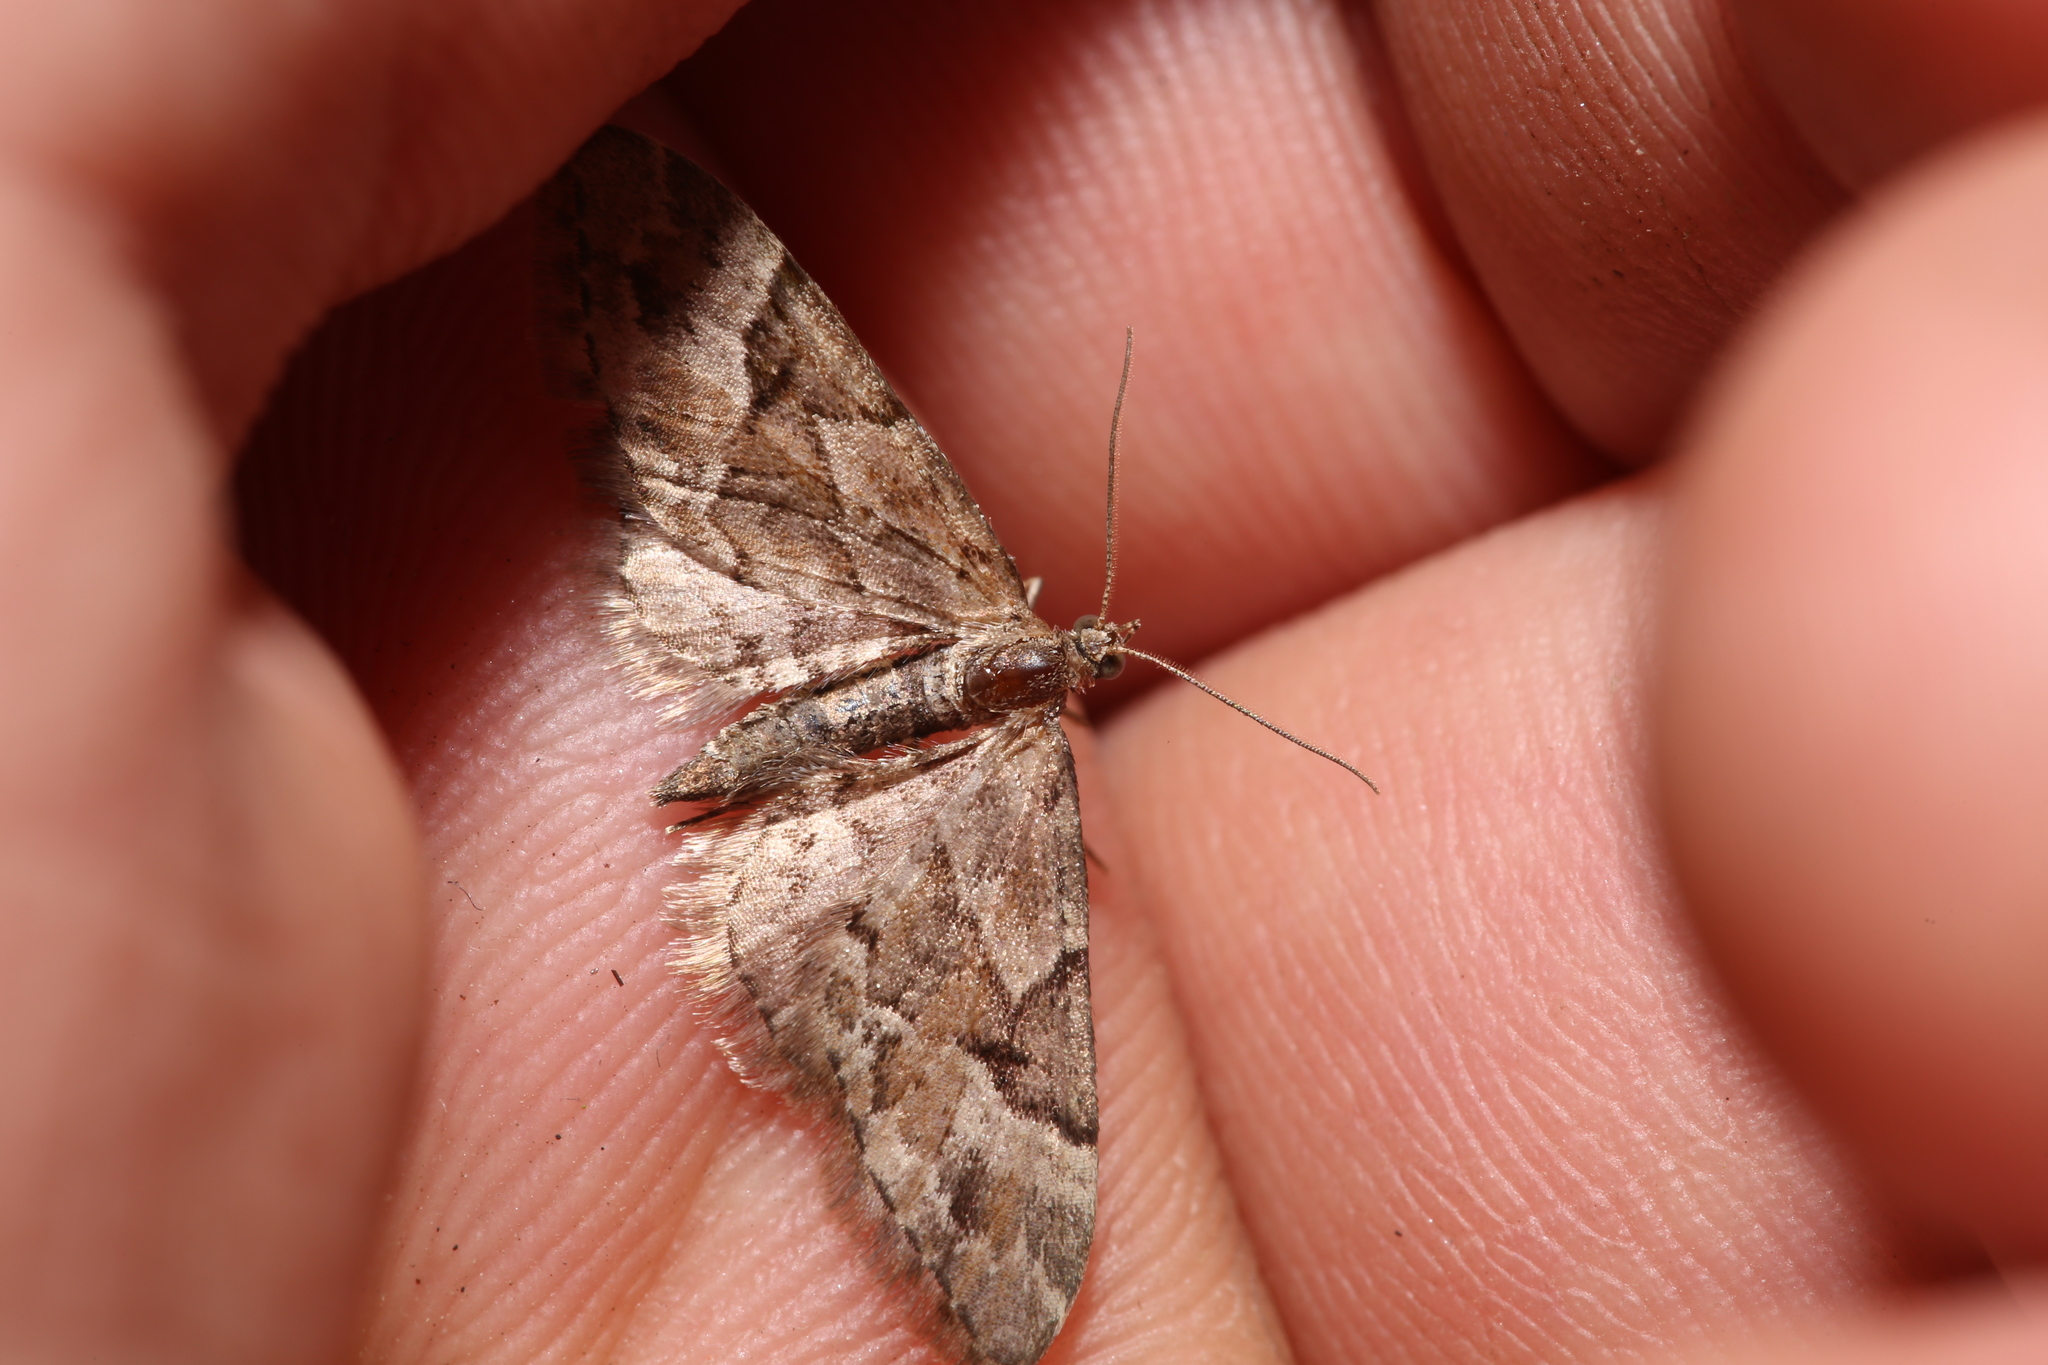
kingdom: Animalia
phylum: Arthropoda
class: Insecta
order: Lepidoptera
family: Geometridae
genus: Eupithecia
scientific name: Eupithecia lanceata
